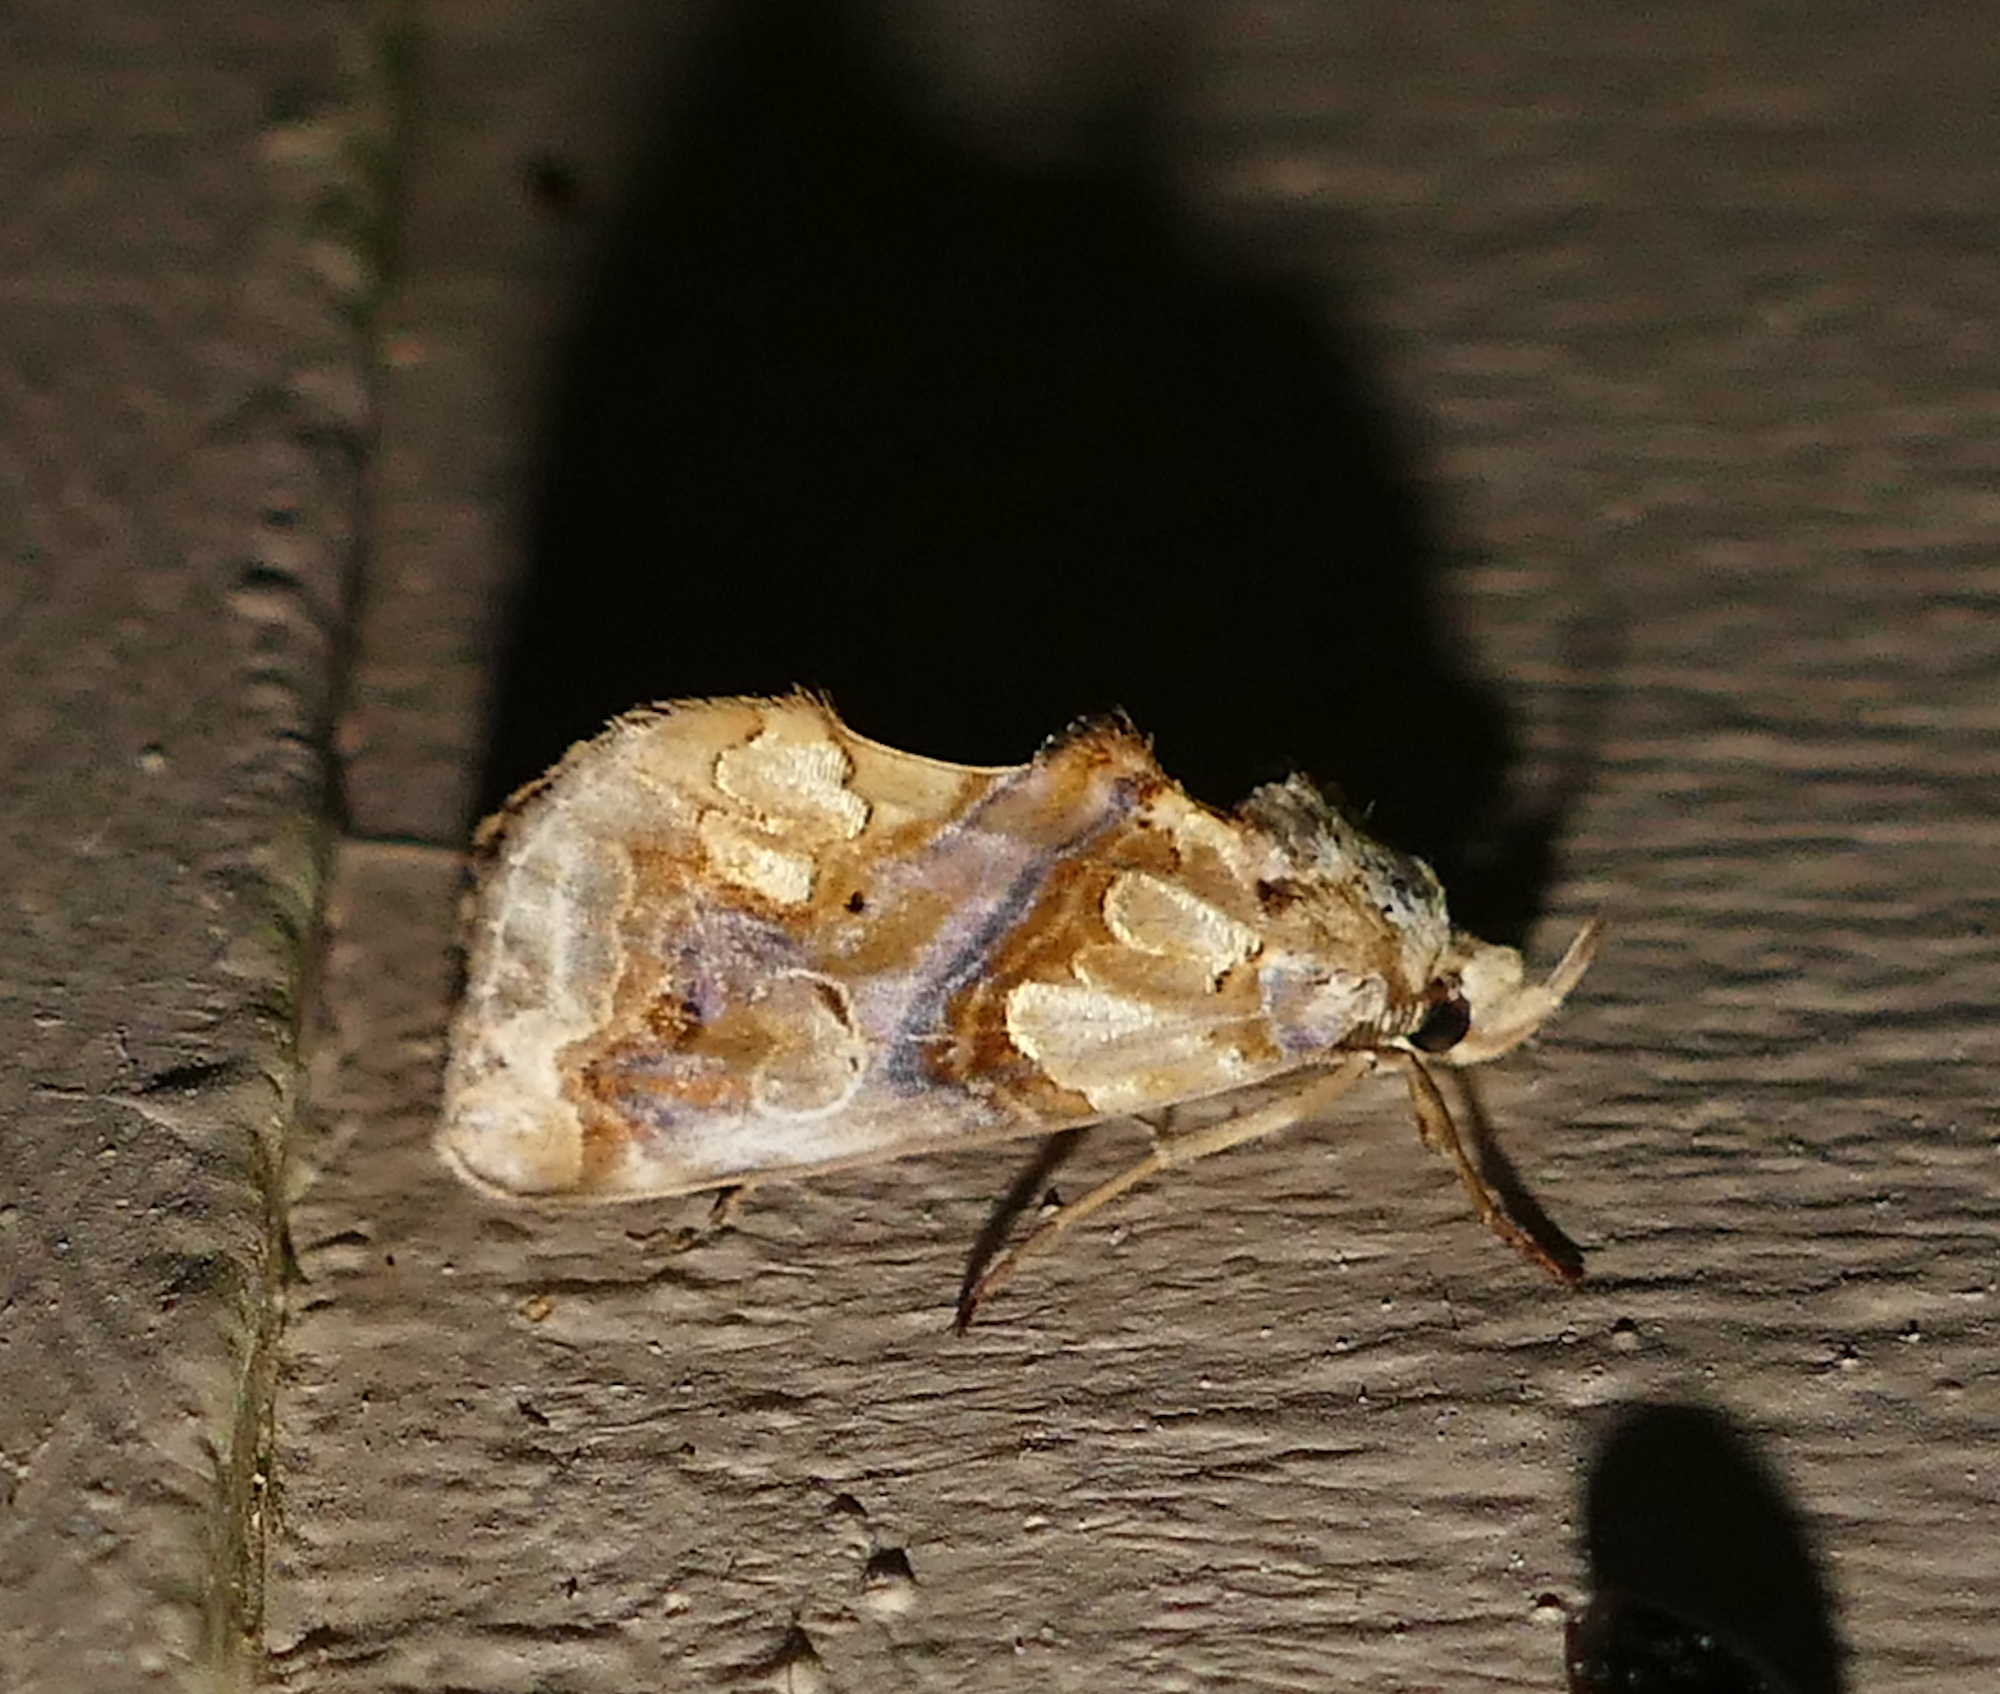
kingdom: Animalia
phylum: Arthropoda
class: Insecta
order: Lepidoptera
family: Erebidae
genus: Plusiodonta
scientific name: Plusiodonta compressipalpis
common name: Moonseed moth
